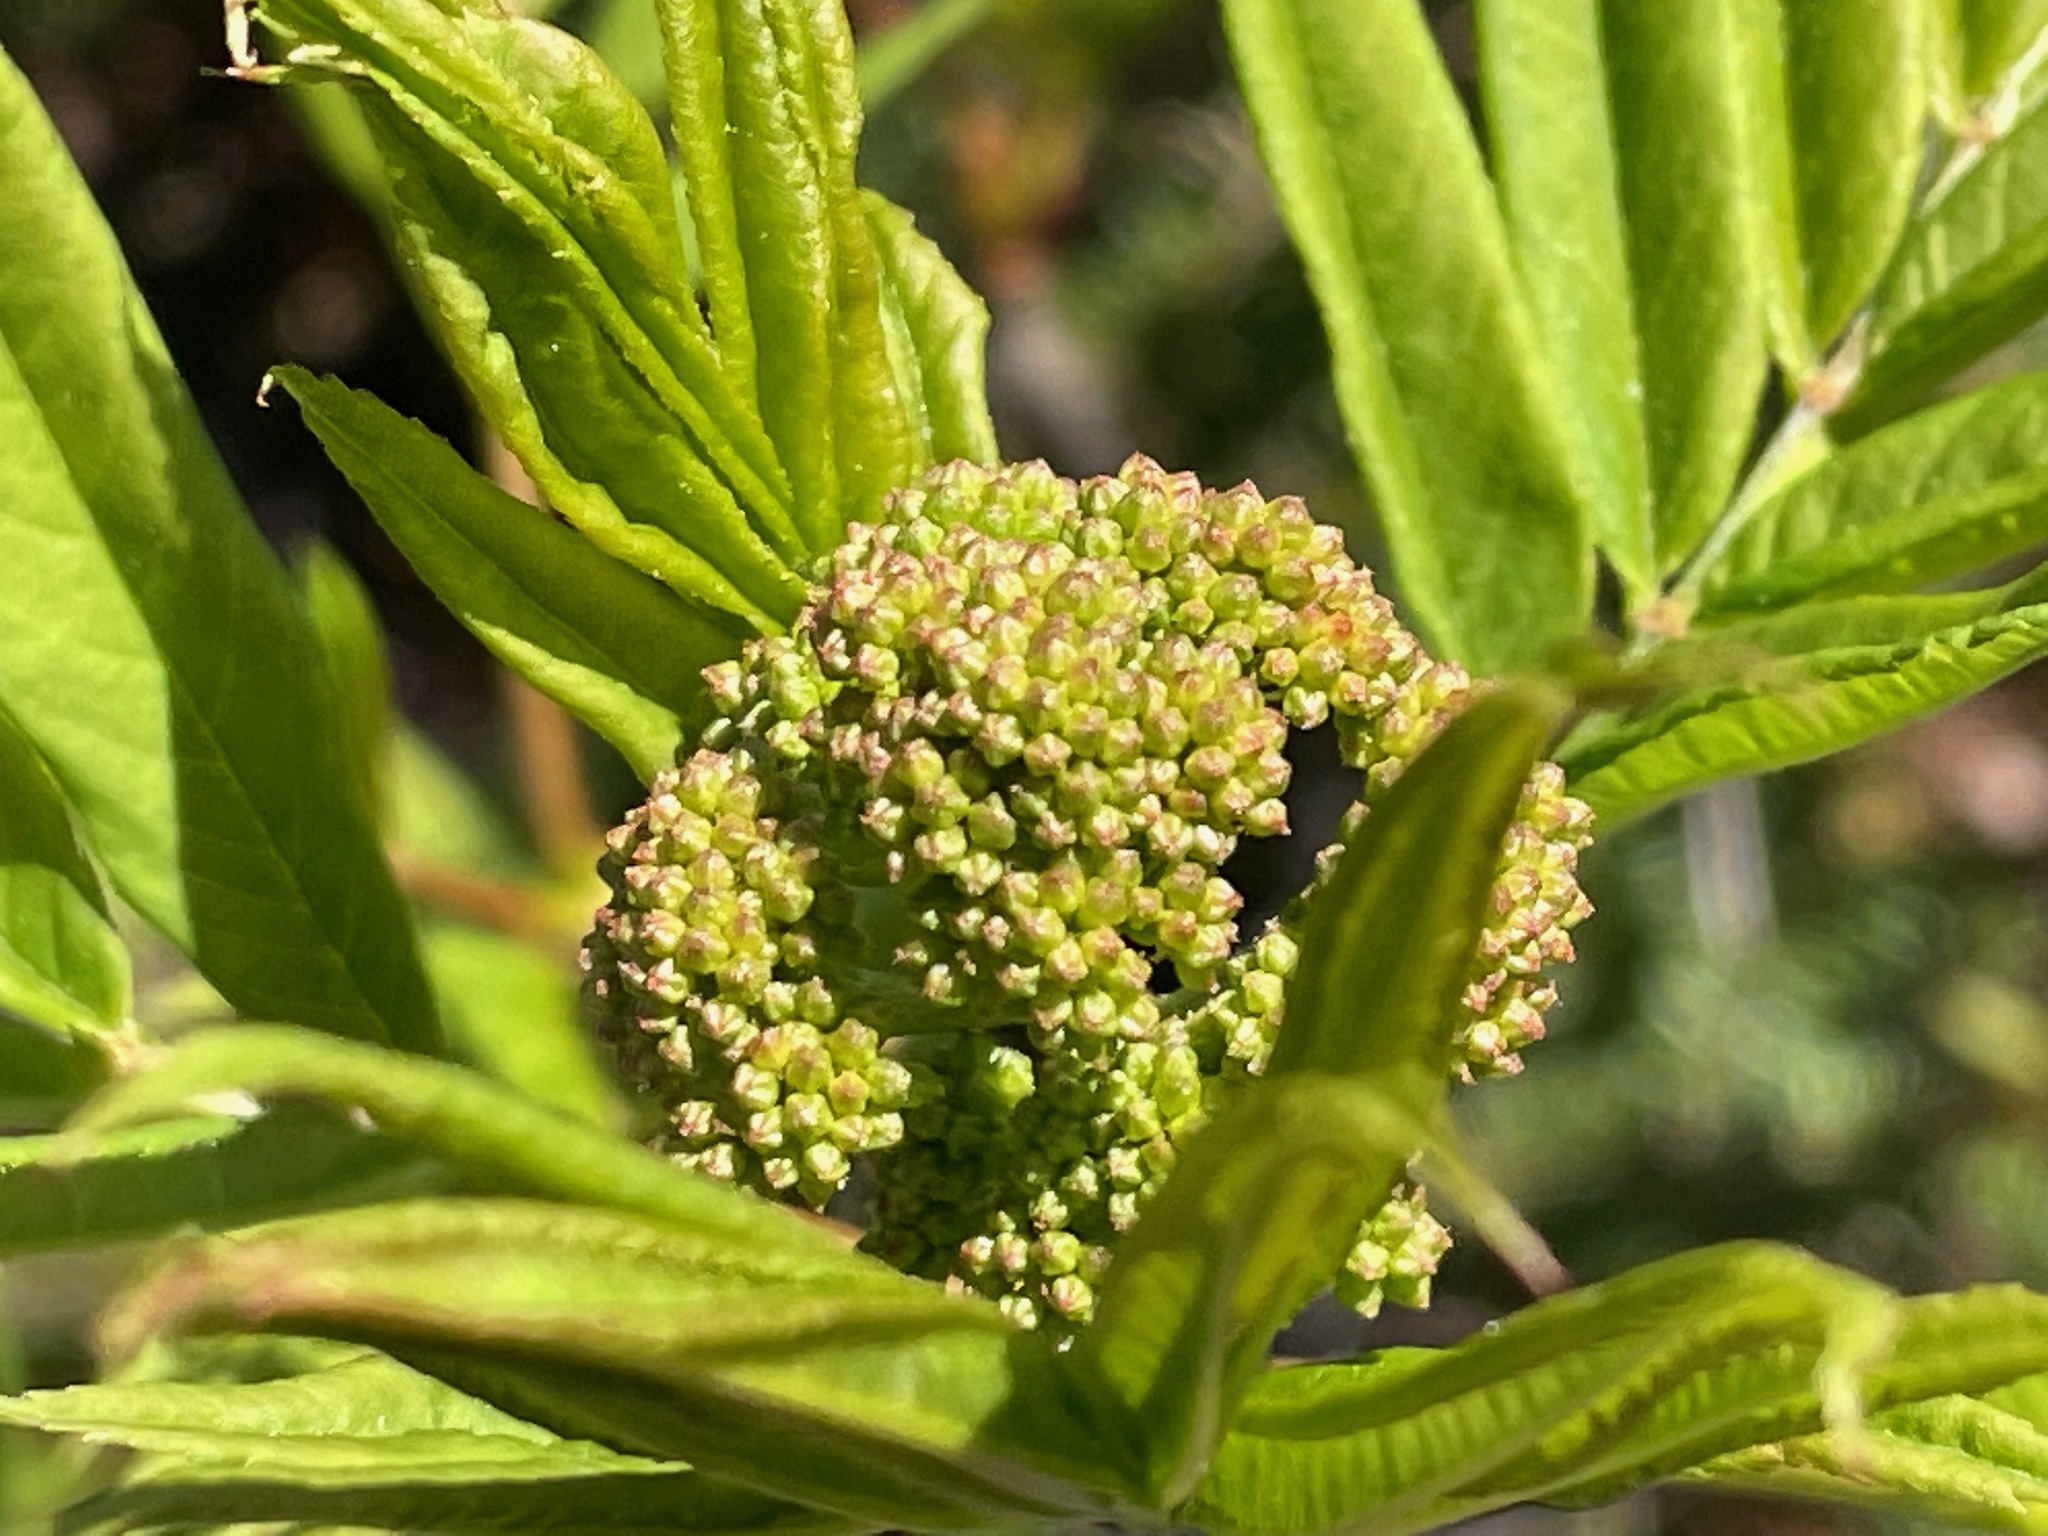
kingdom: Plantae
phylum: Tracheophyta
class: Magnoliopsida
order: Rosales
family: Rosaceae
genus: Sorbus
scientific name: Sorbus americana
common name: American mountain-ash
